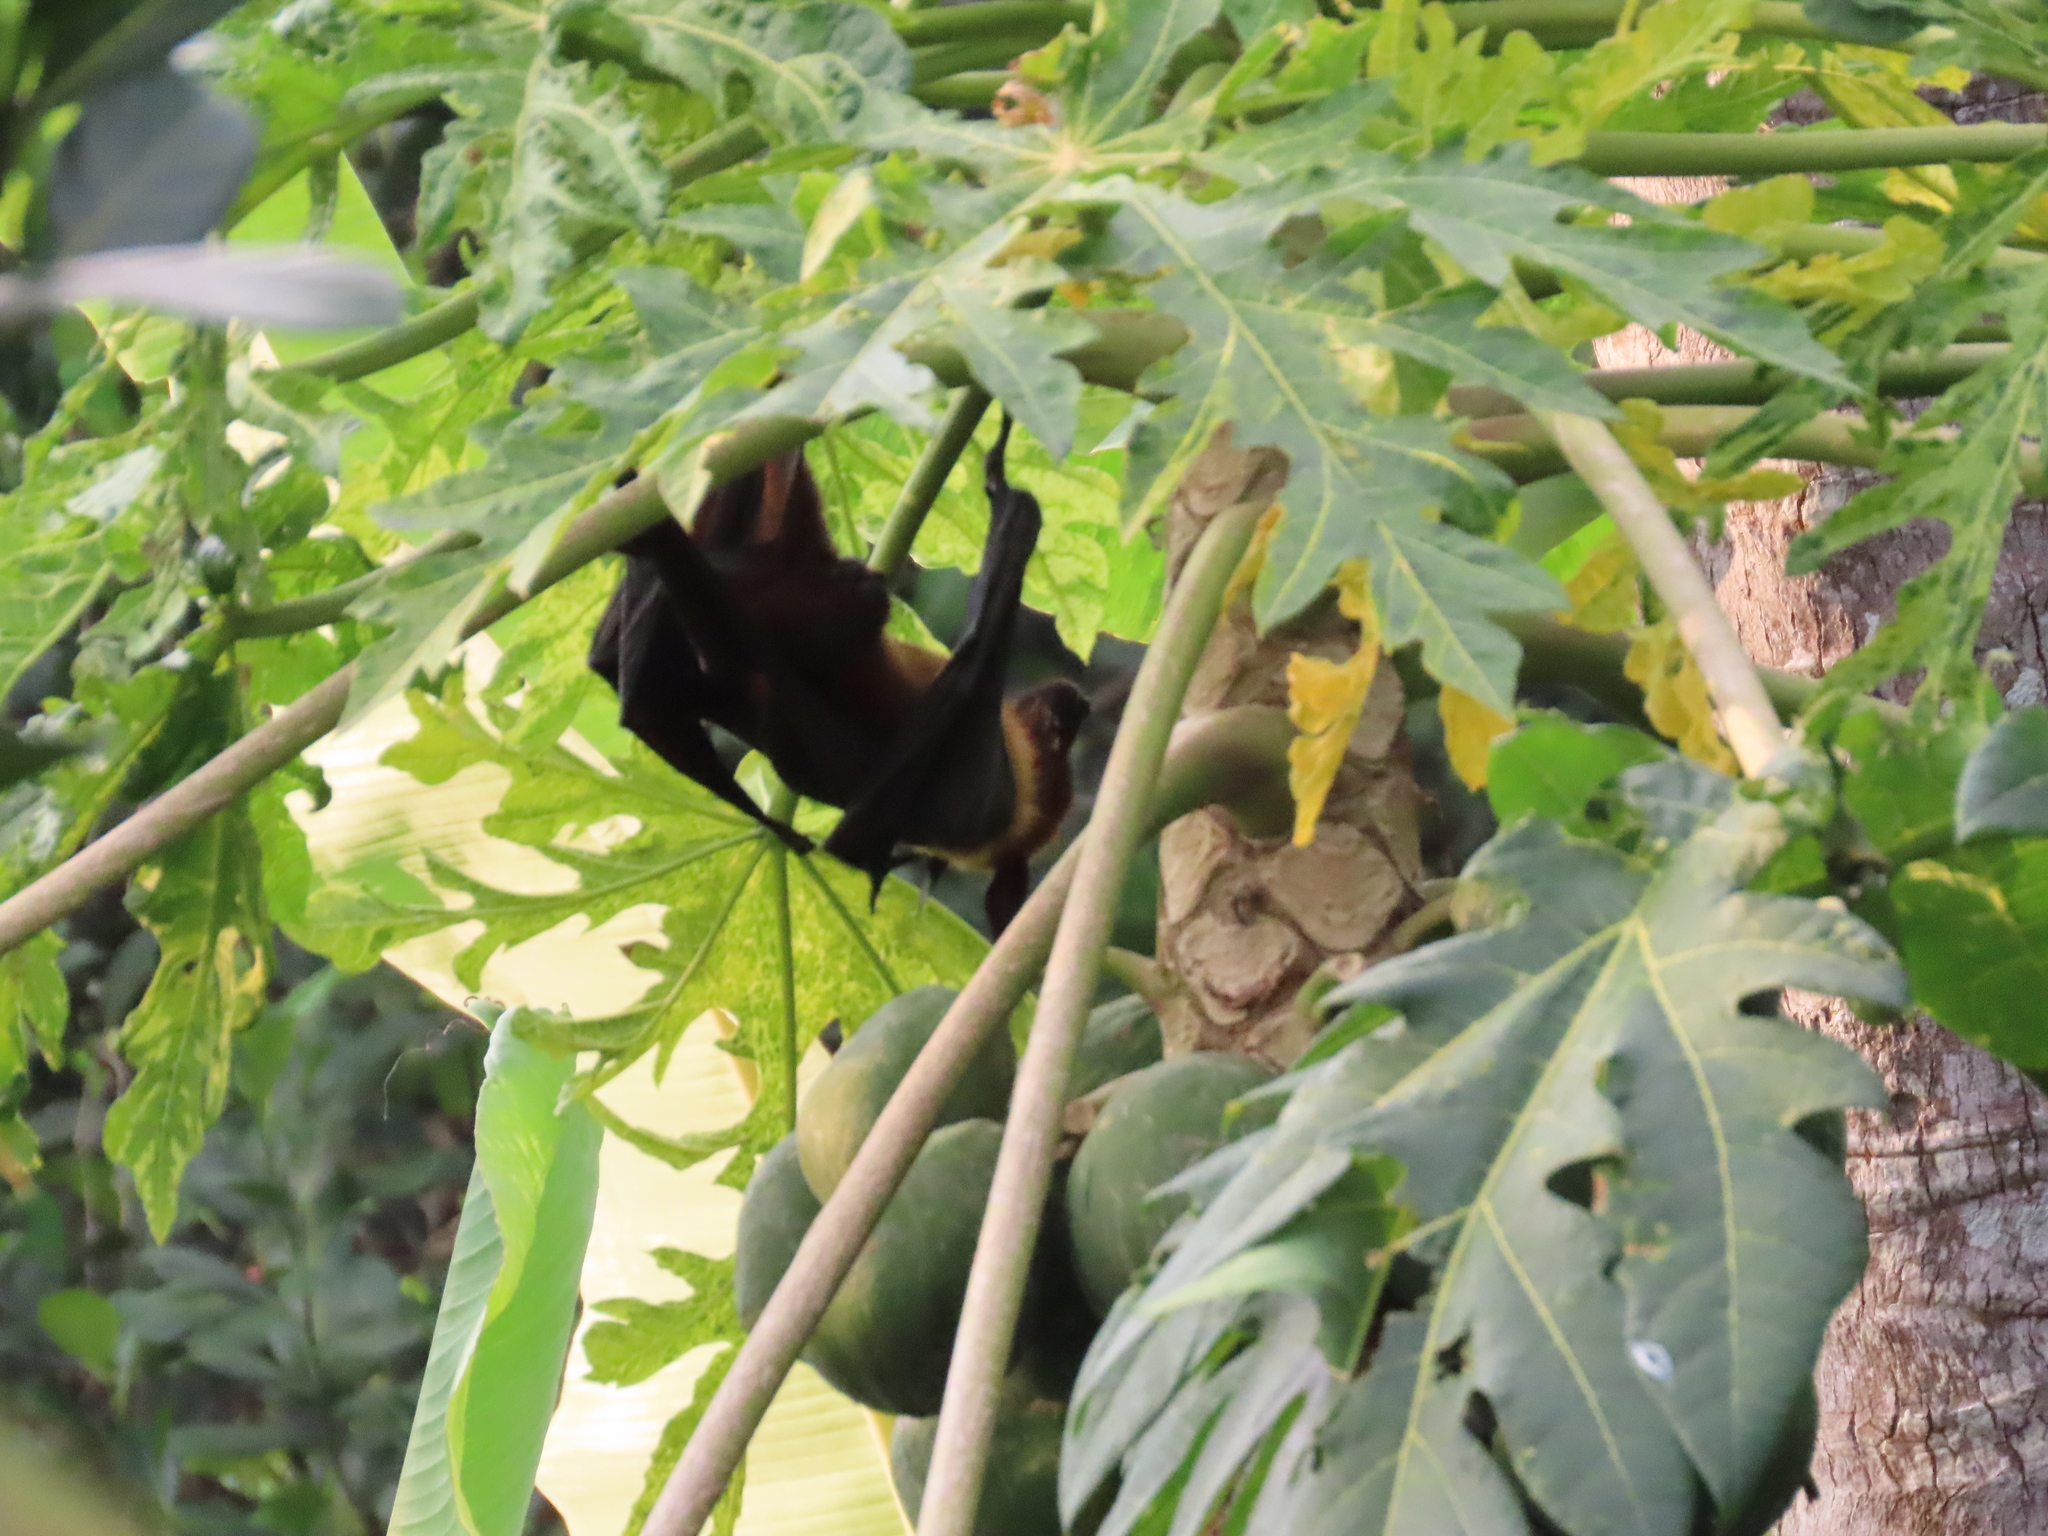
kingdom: Animalia
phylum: Chordata
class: Mammalia
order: Chiroptera
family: Pteropodidae
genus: Pteropus
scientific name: Pteropus vampyrus
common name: Large flying fox
